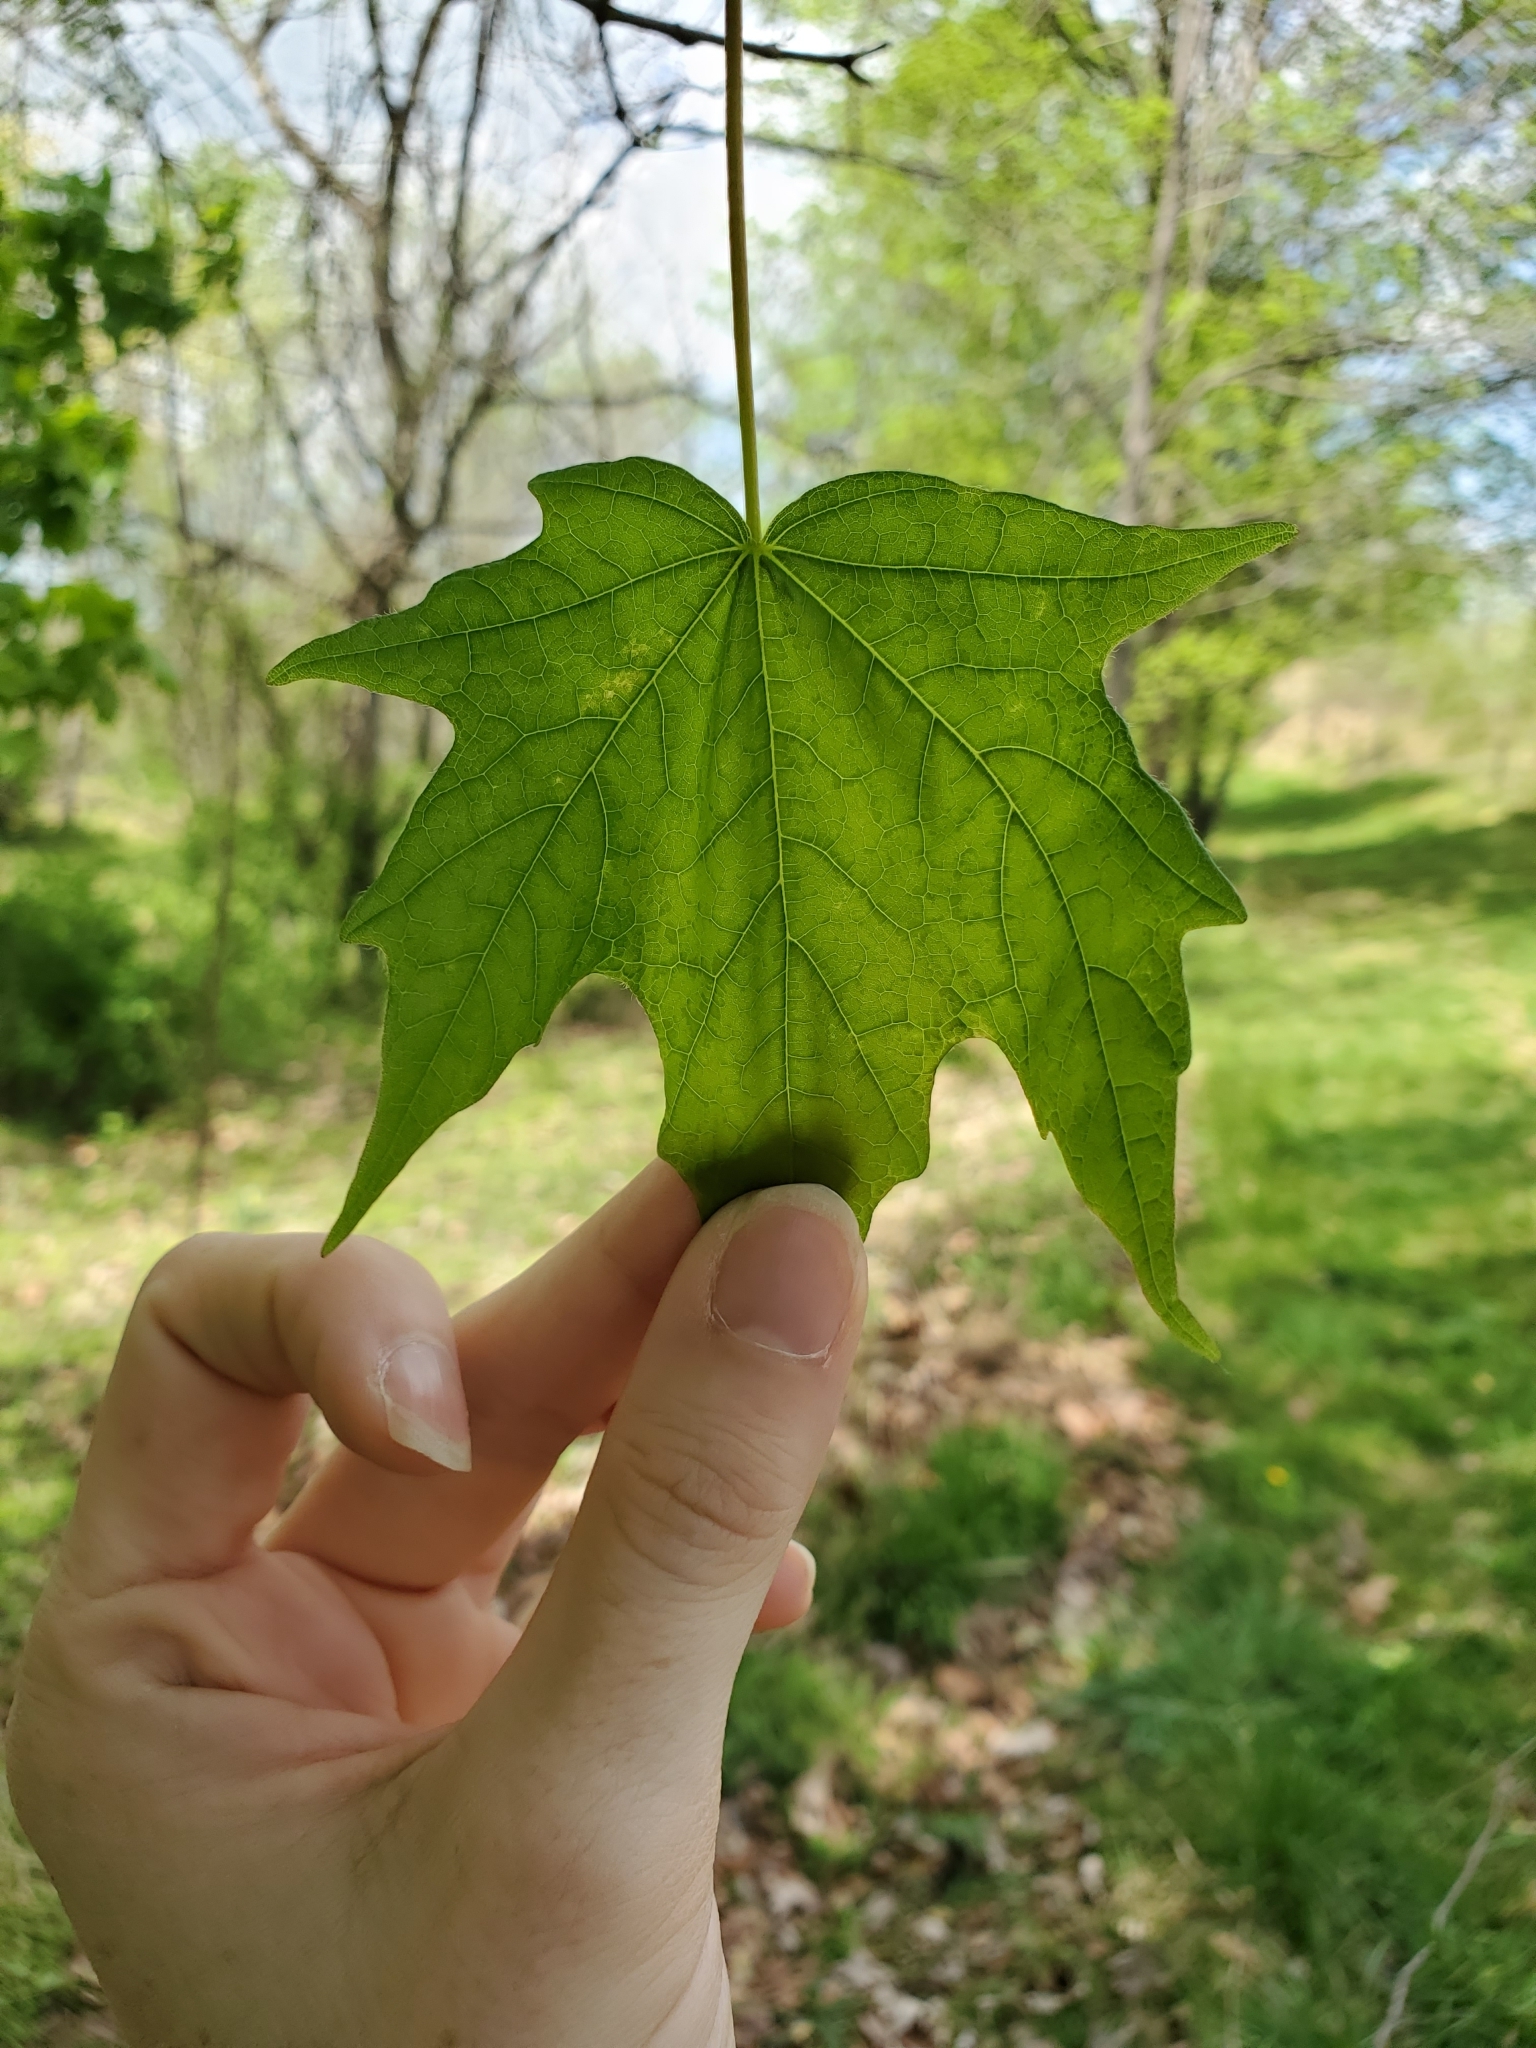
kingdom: Plantae
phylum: Tracheophyta
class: Magnoliopsida
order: Sapindales
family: Sapindaceae
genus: Acer
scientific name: Acer saccharum
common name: Sugar maple
